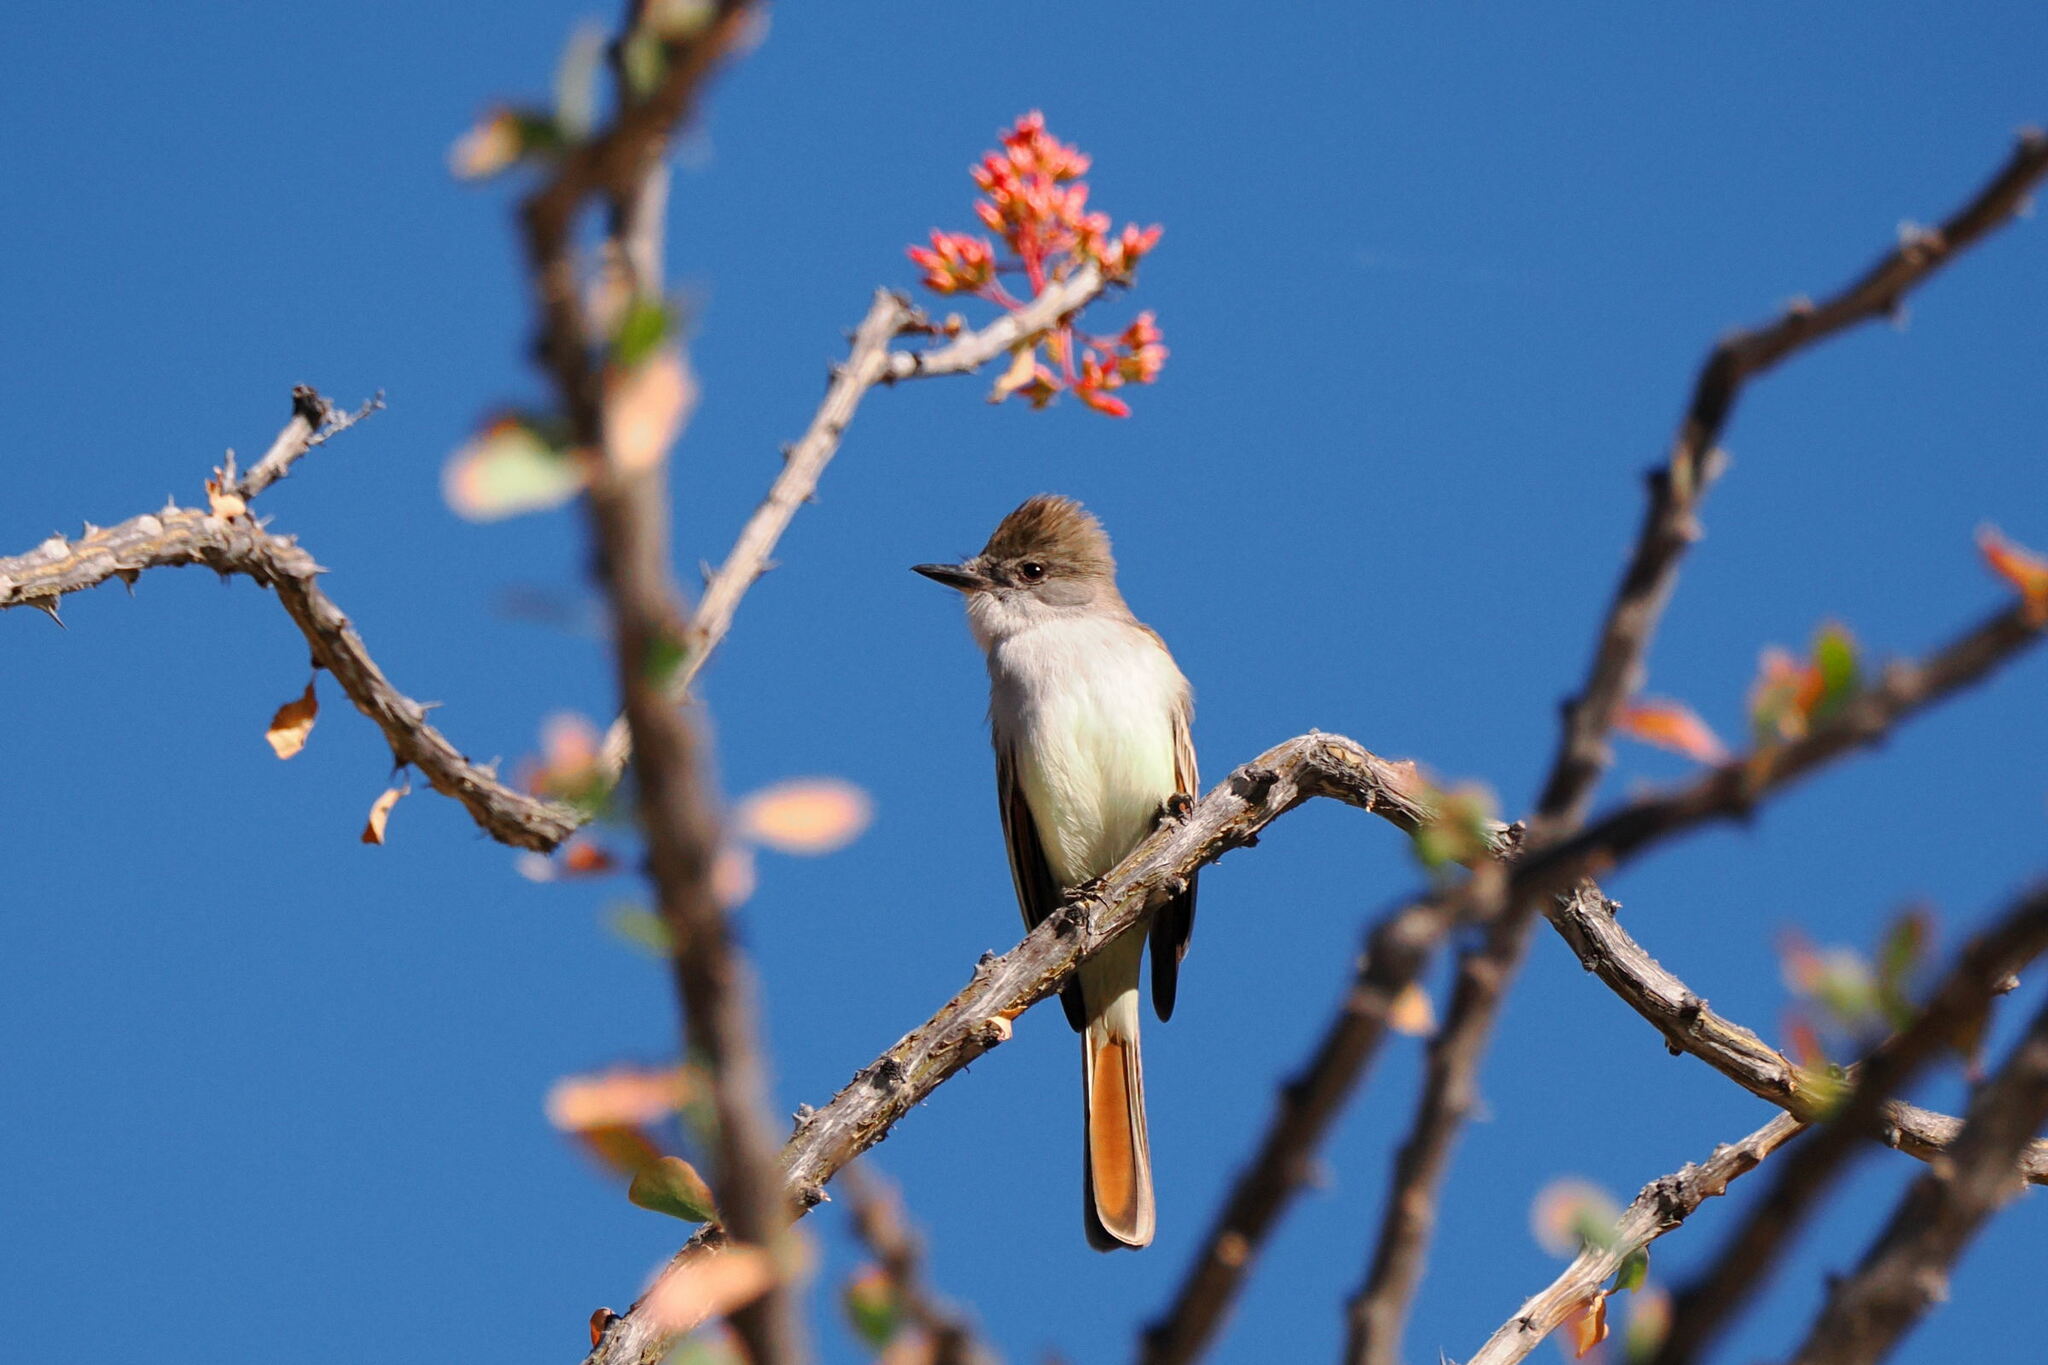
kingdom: Animalia
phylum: Chordata
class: Aves
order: Passeriformes
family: Tyrannidae
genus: Myiarchus
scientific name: Myiarchus cinerascens
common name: Ash-throated flycatcher
